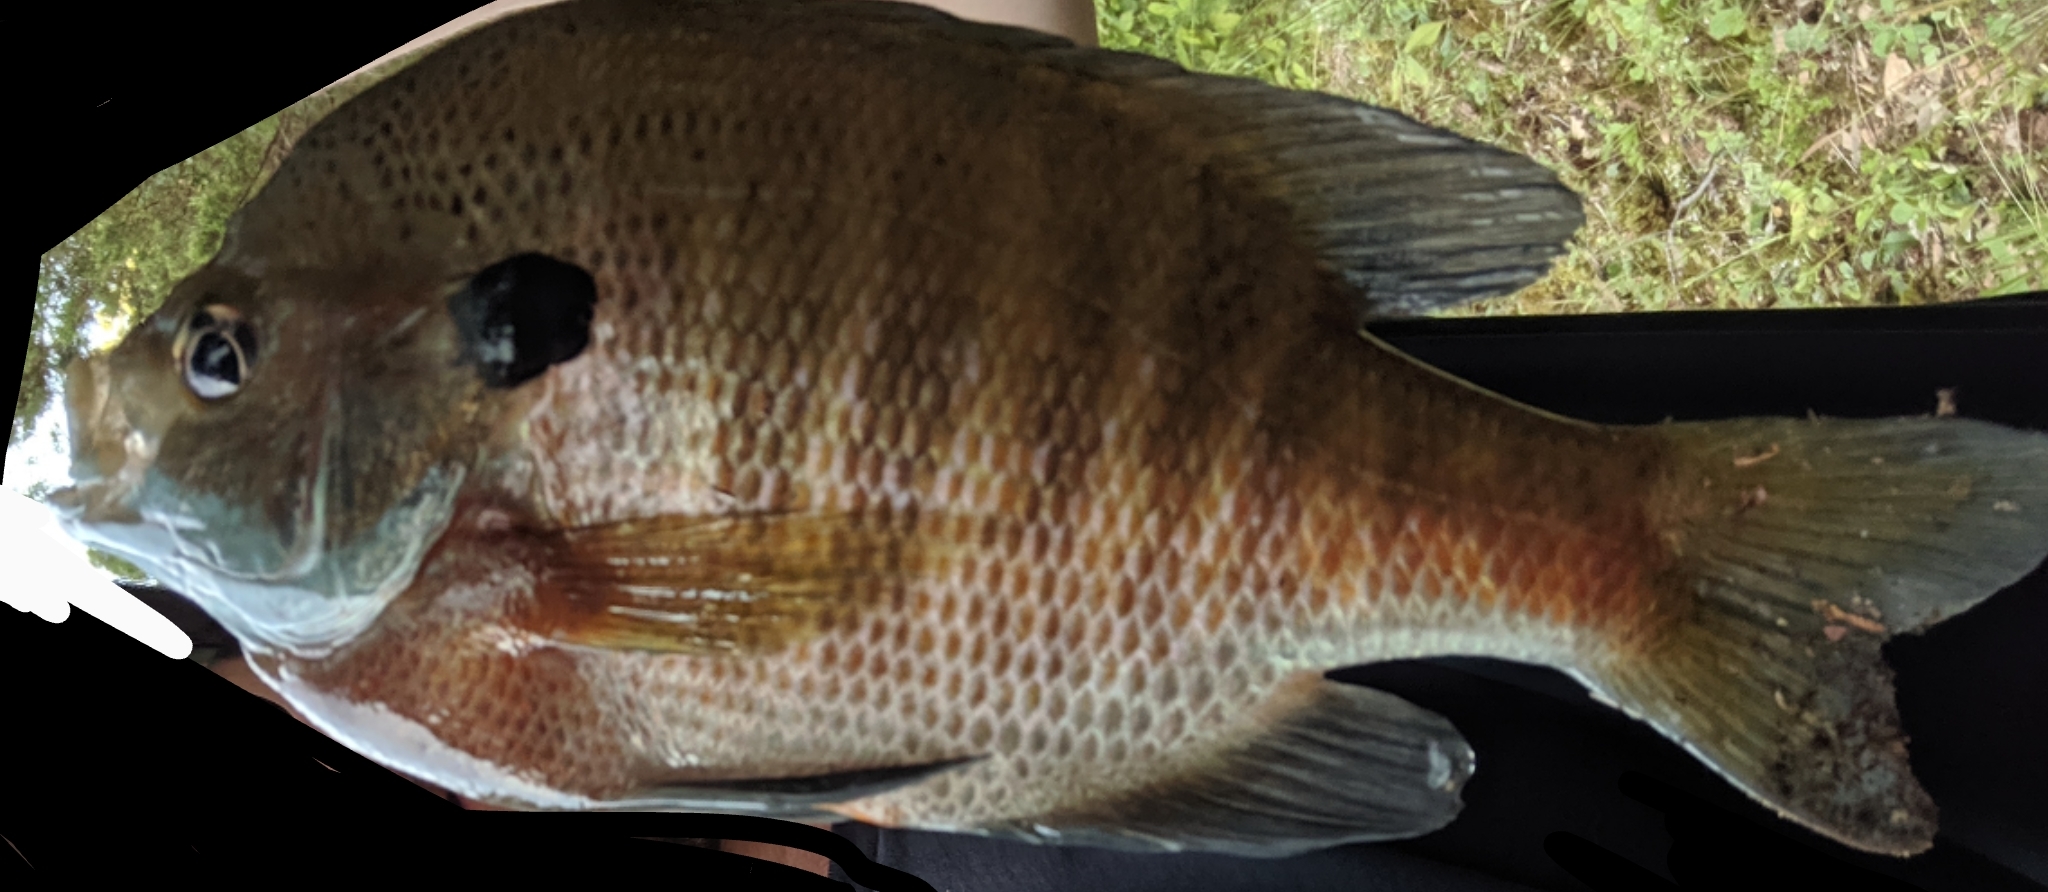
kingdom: Animalia
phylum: Chordata
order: Perciformes
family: Centrarchidae
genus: Lepomis
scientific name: Lepomis macrochirus
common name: Bluegill
